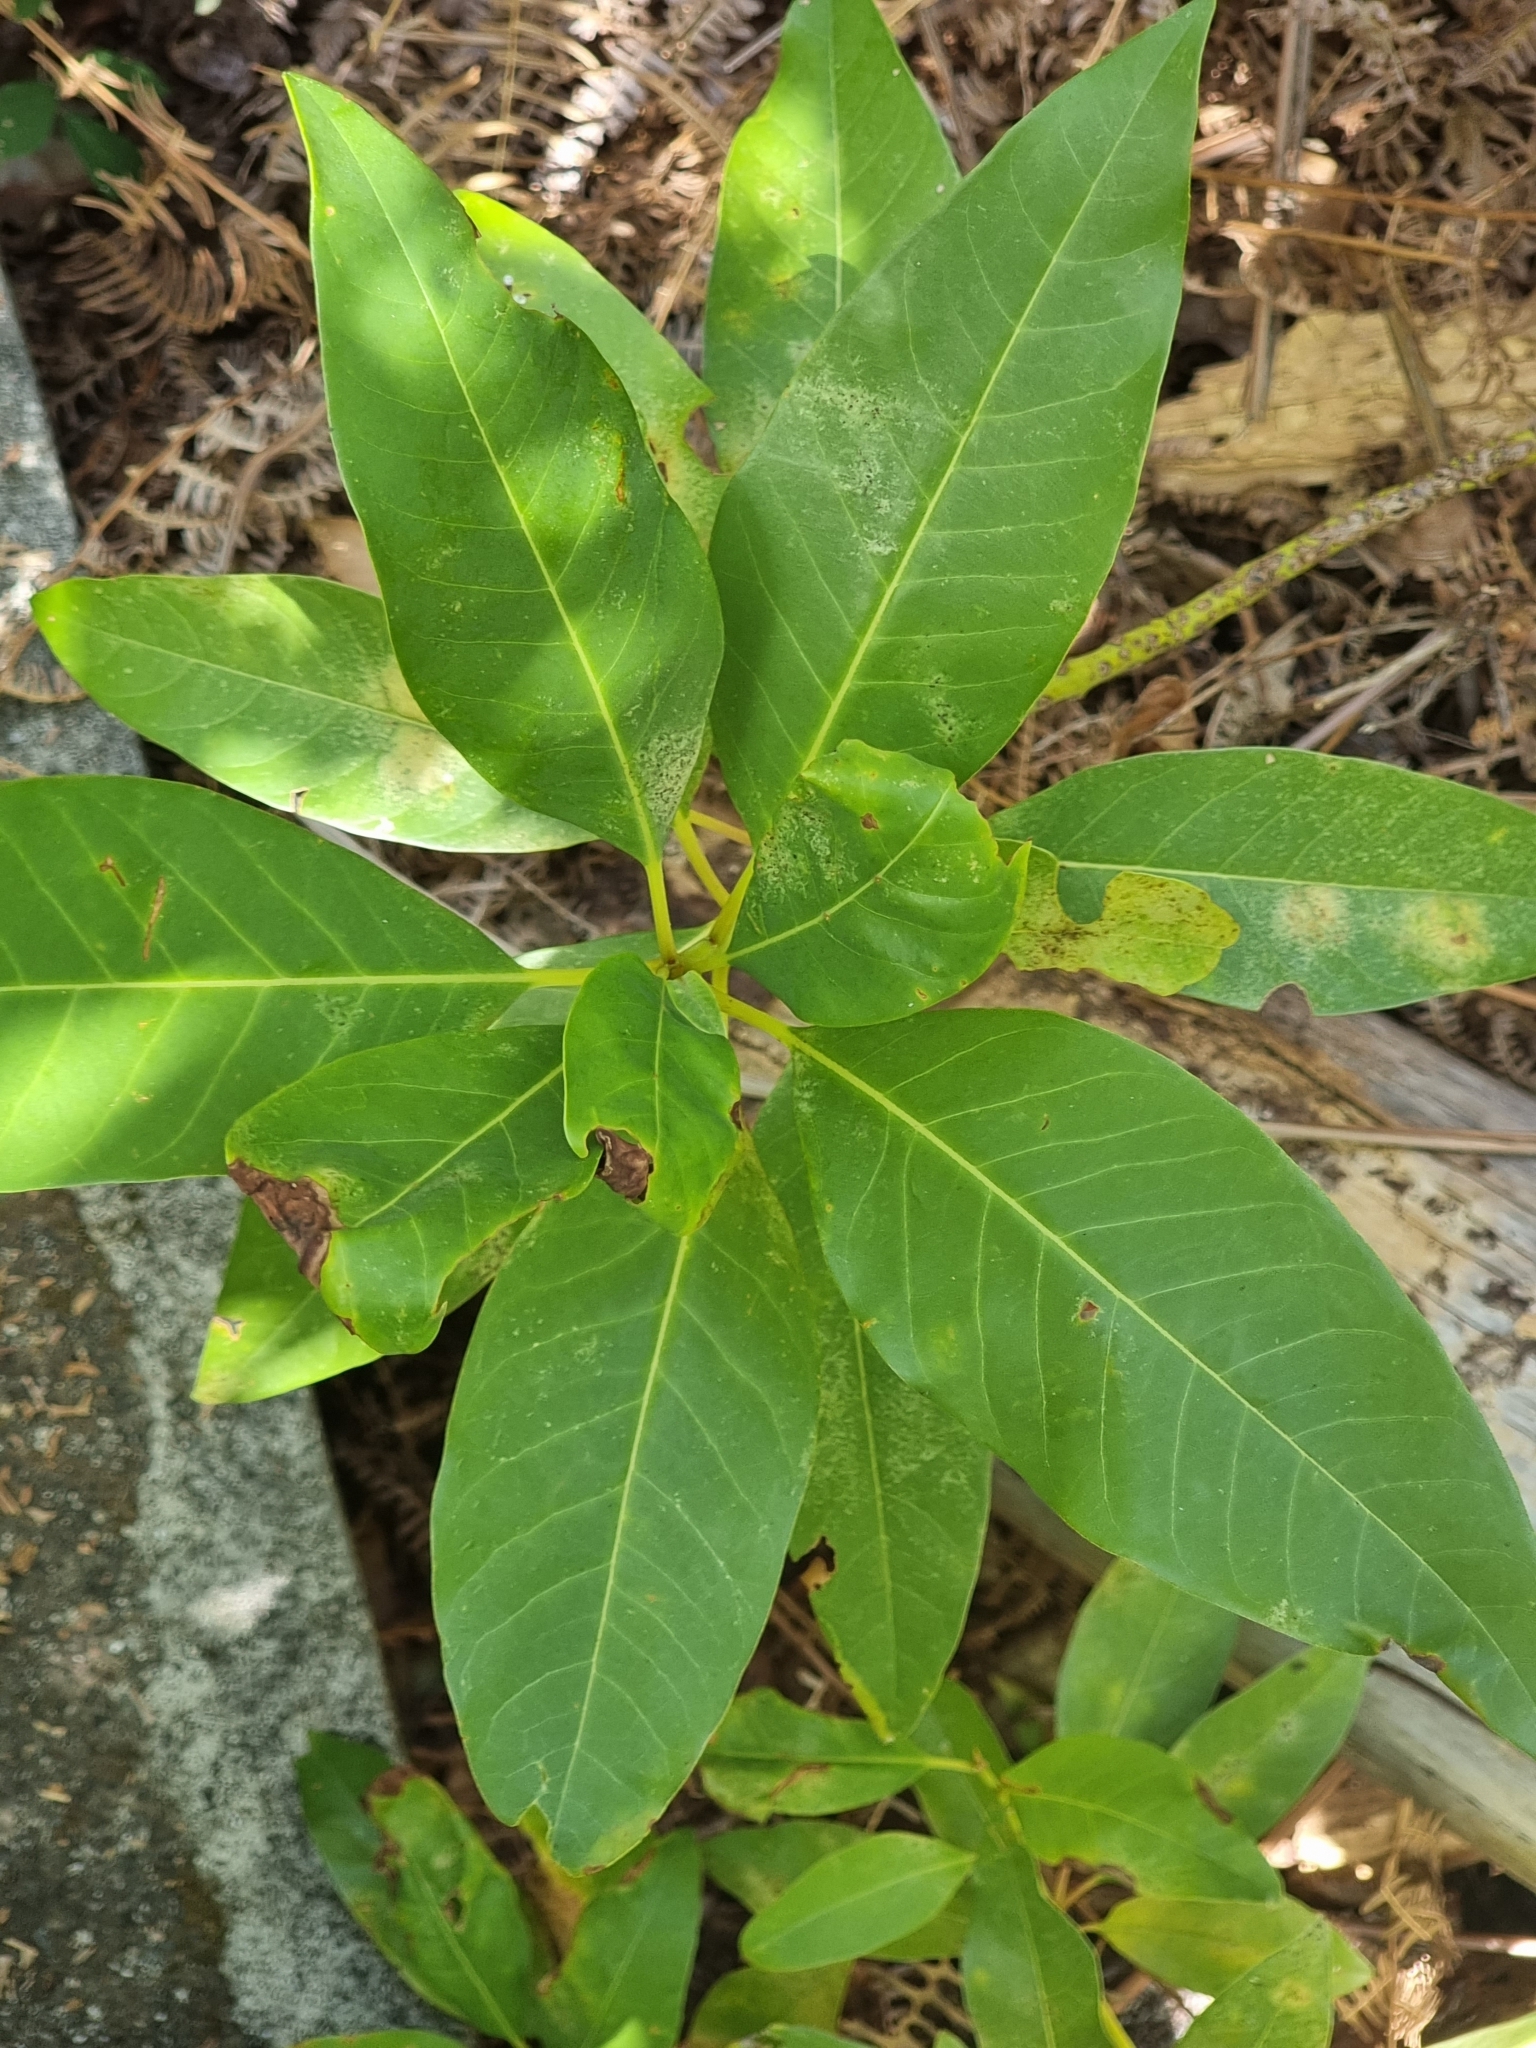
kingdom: Plantae
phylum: Tracheophyta
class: Magnoliopsida
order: Laurales
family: Lauraceae
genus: Persea
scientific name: Persea indica
